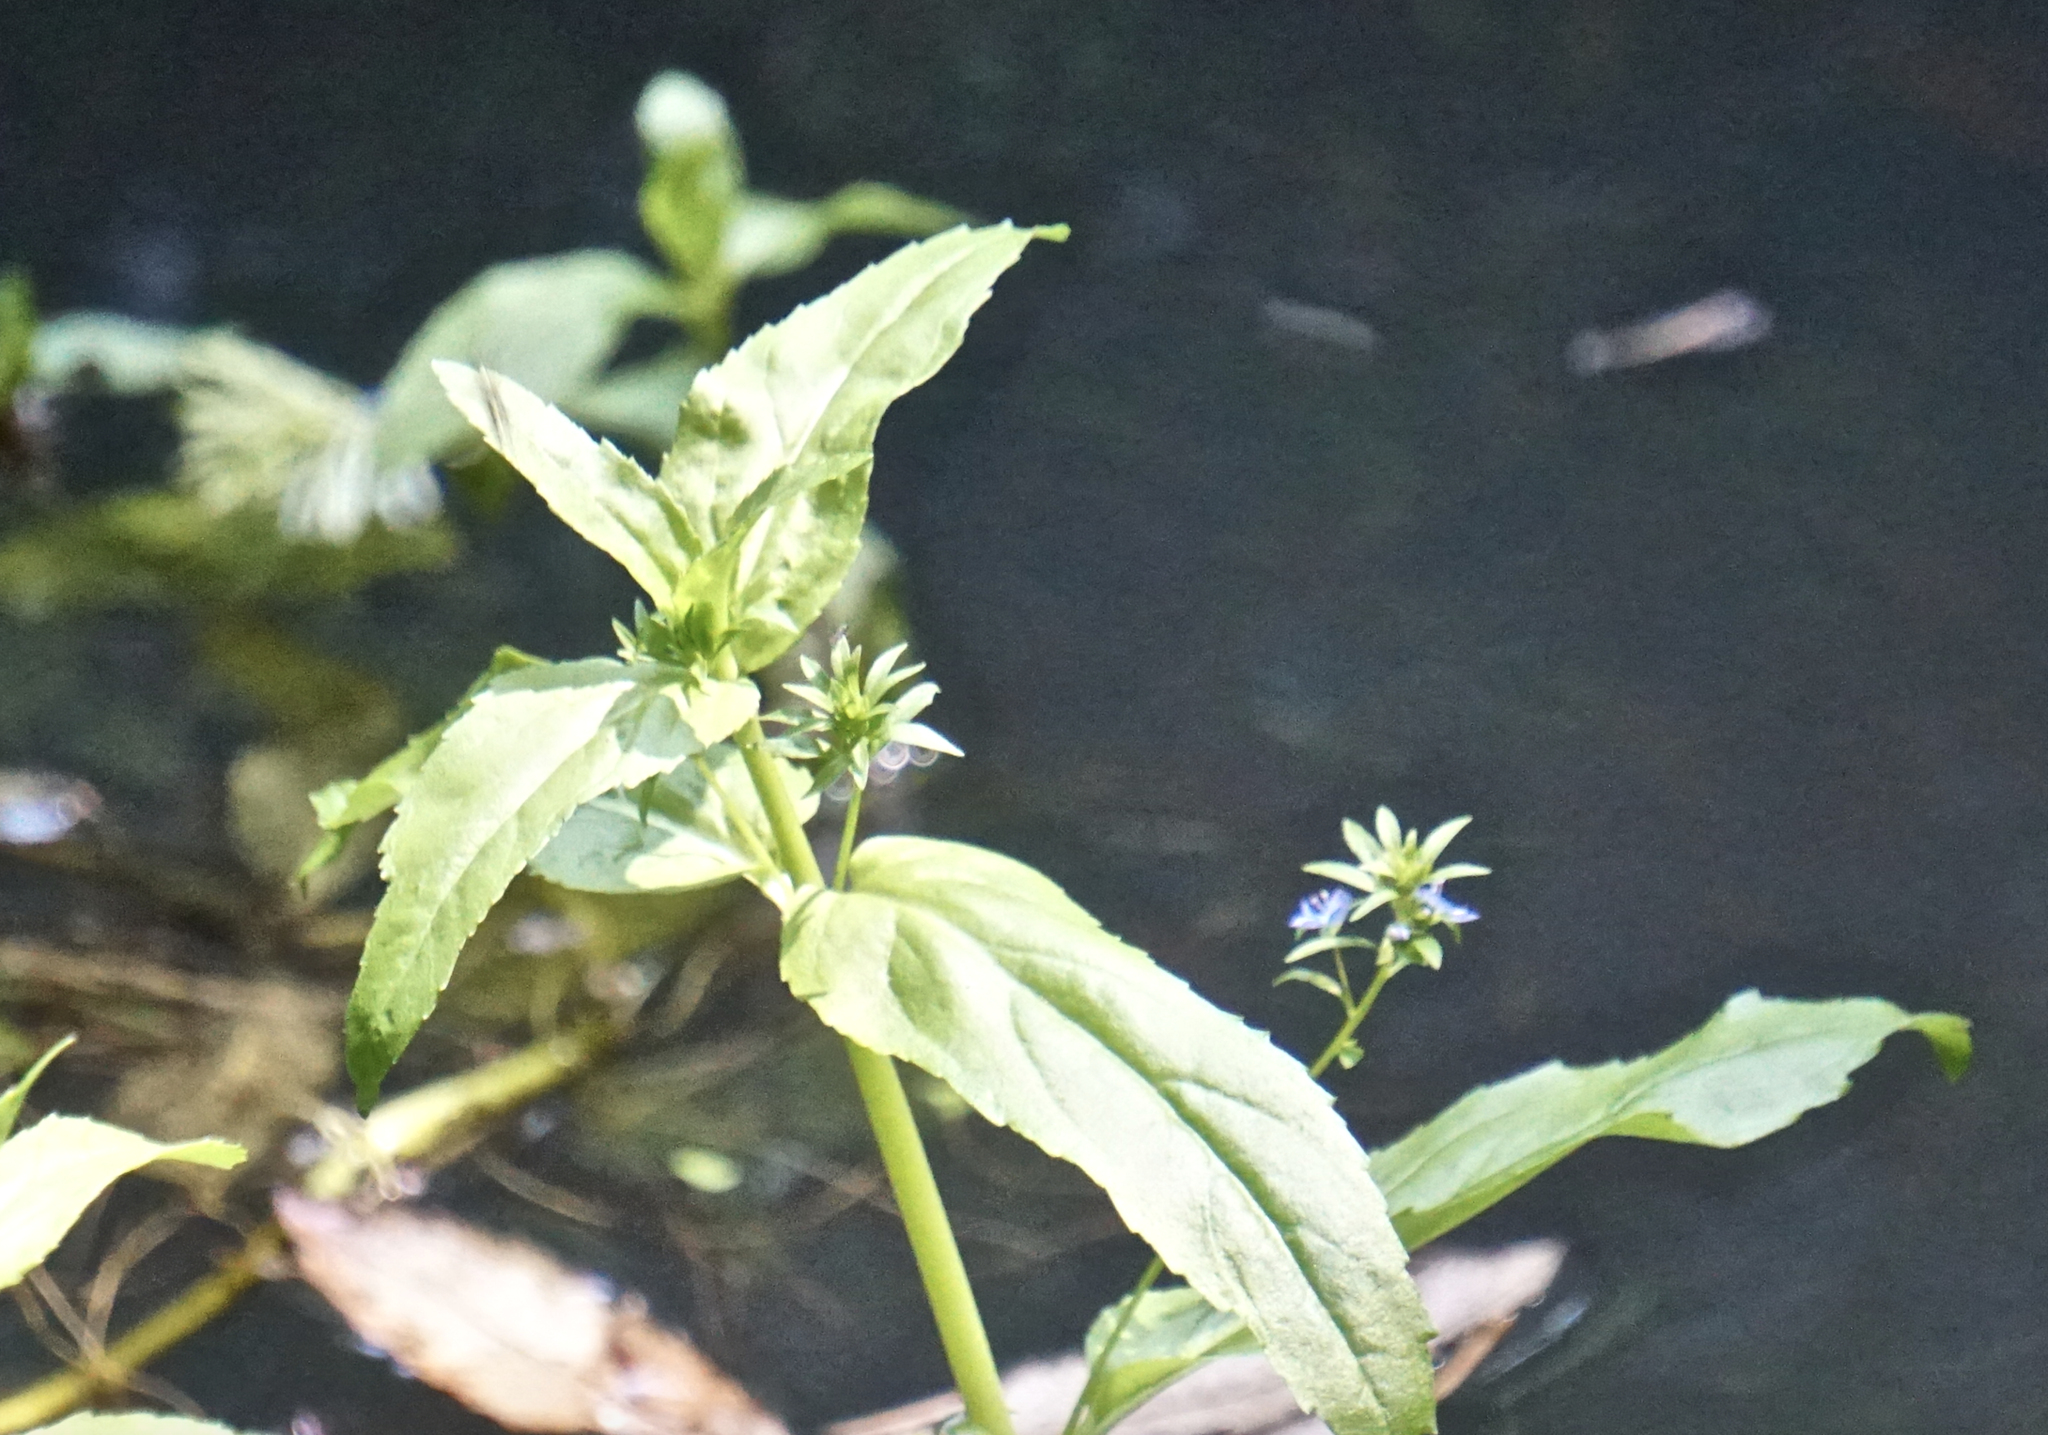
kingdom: Plantae
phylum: Tracheophyta
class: Magnoliopsida
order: Lamiales
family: Plantaginaceae
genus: Veronica
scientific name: Veronica americana
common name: American brooklime
